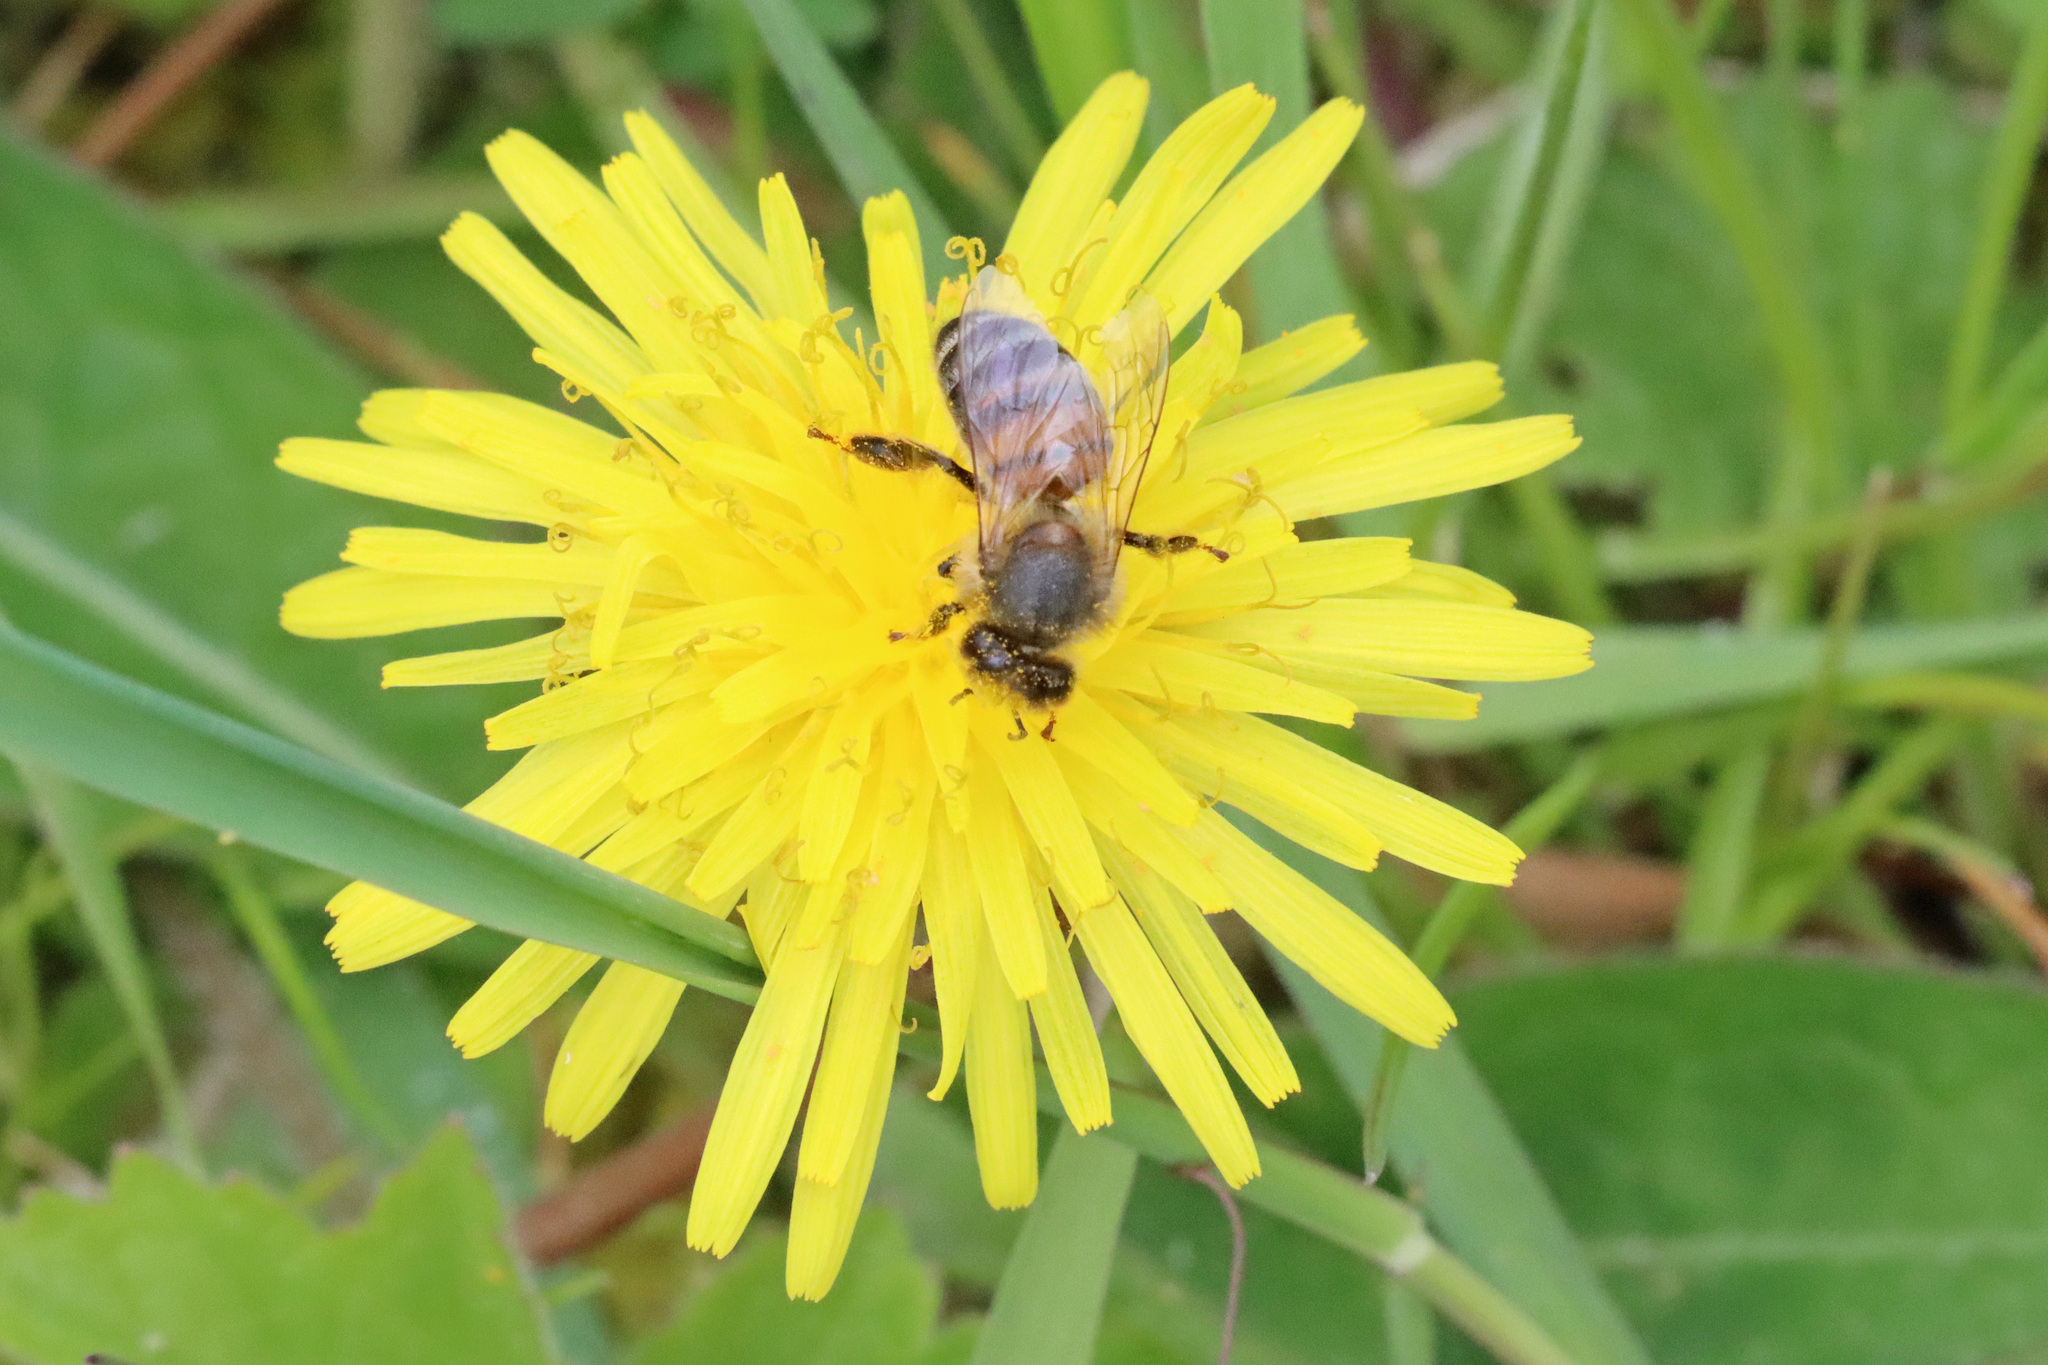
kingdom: Animalia
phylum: Arthropoda
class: Insecta
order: Hymenoptera
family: Apidae
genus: Apis
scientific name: Apis mellifera
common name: Honey bee
